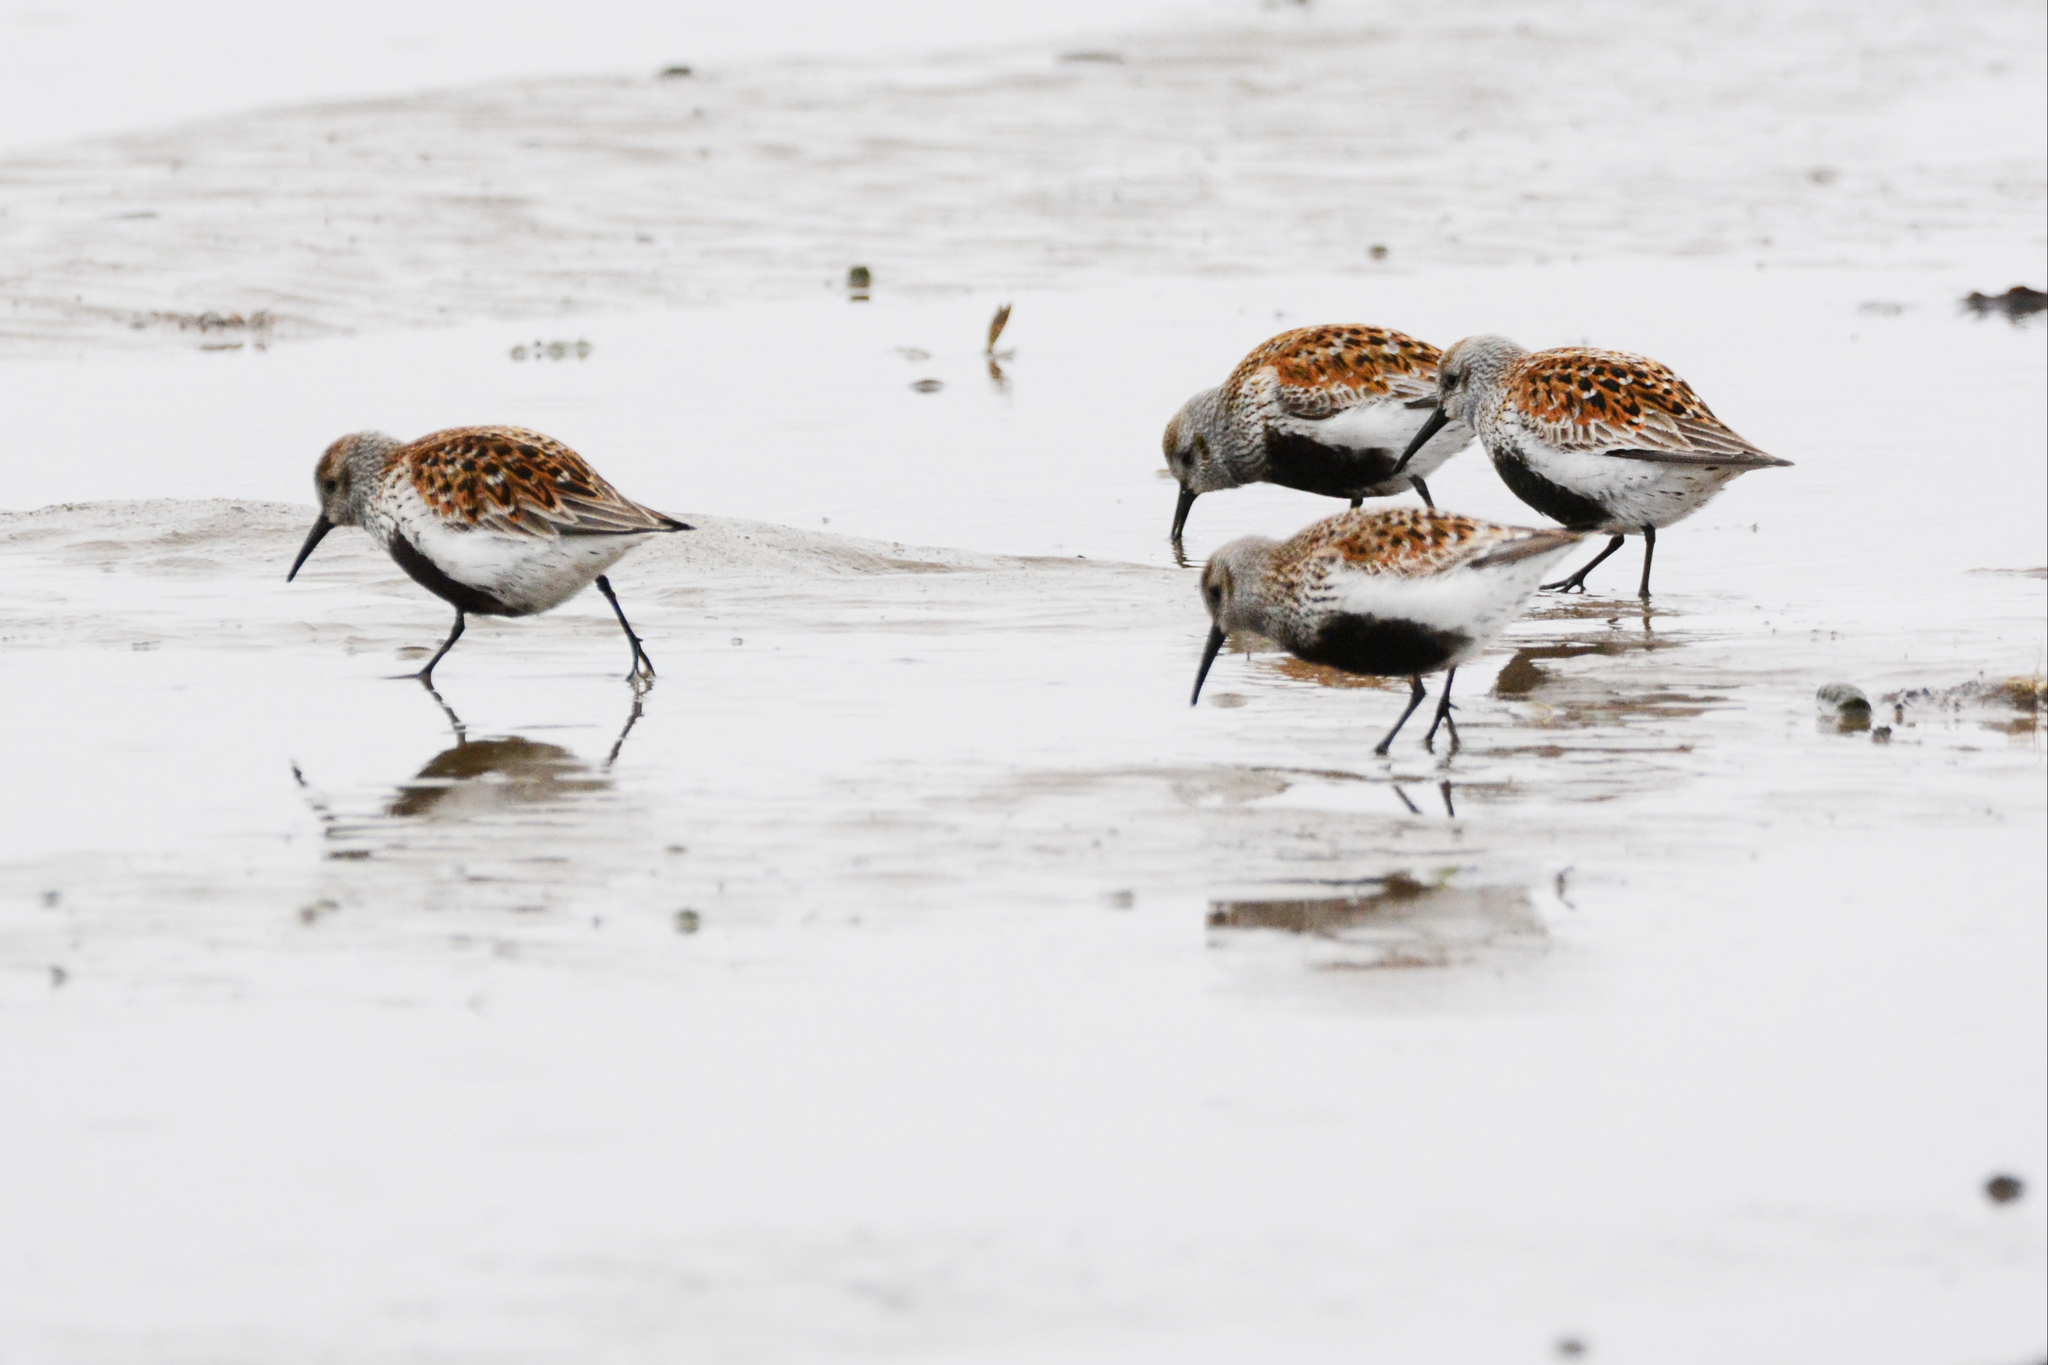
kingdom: Animalia
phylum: Chordata
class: Aves
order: Charadriiformes
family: Scolopacidae
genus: Calidris
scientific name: Calidris alpina
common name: Dunlin
